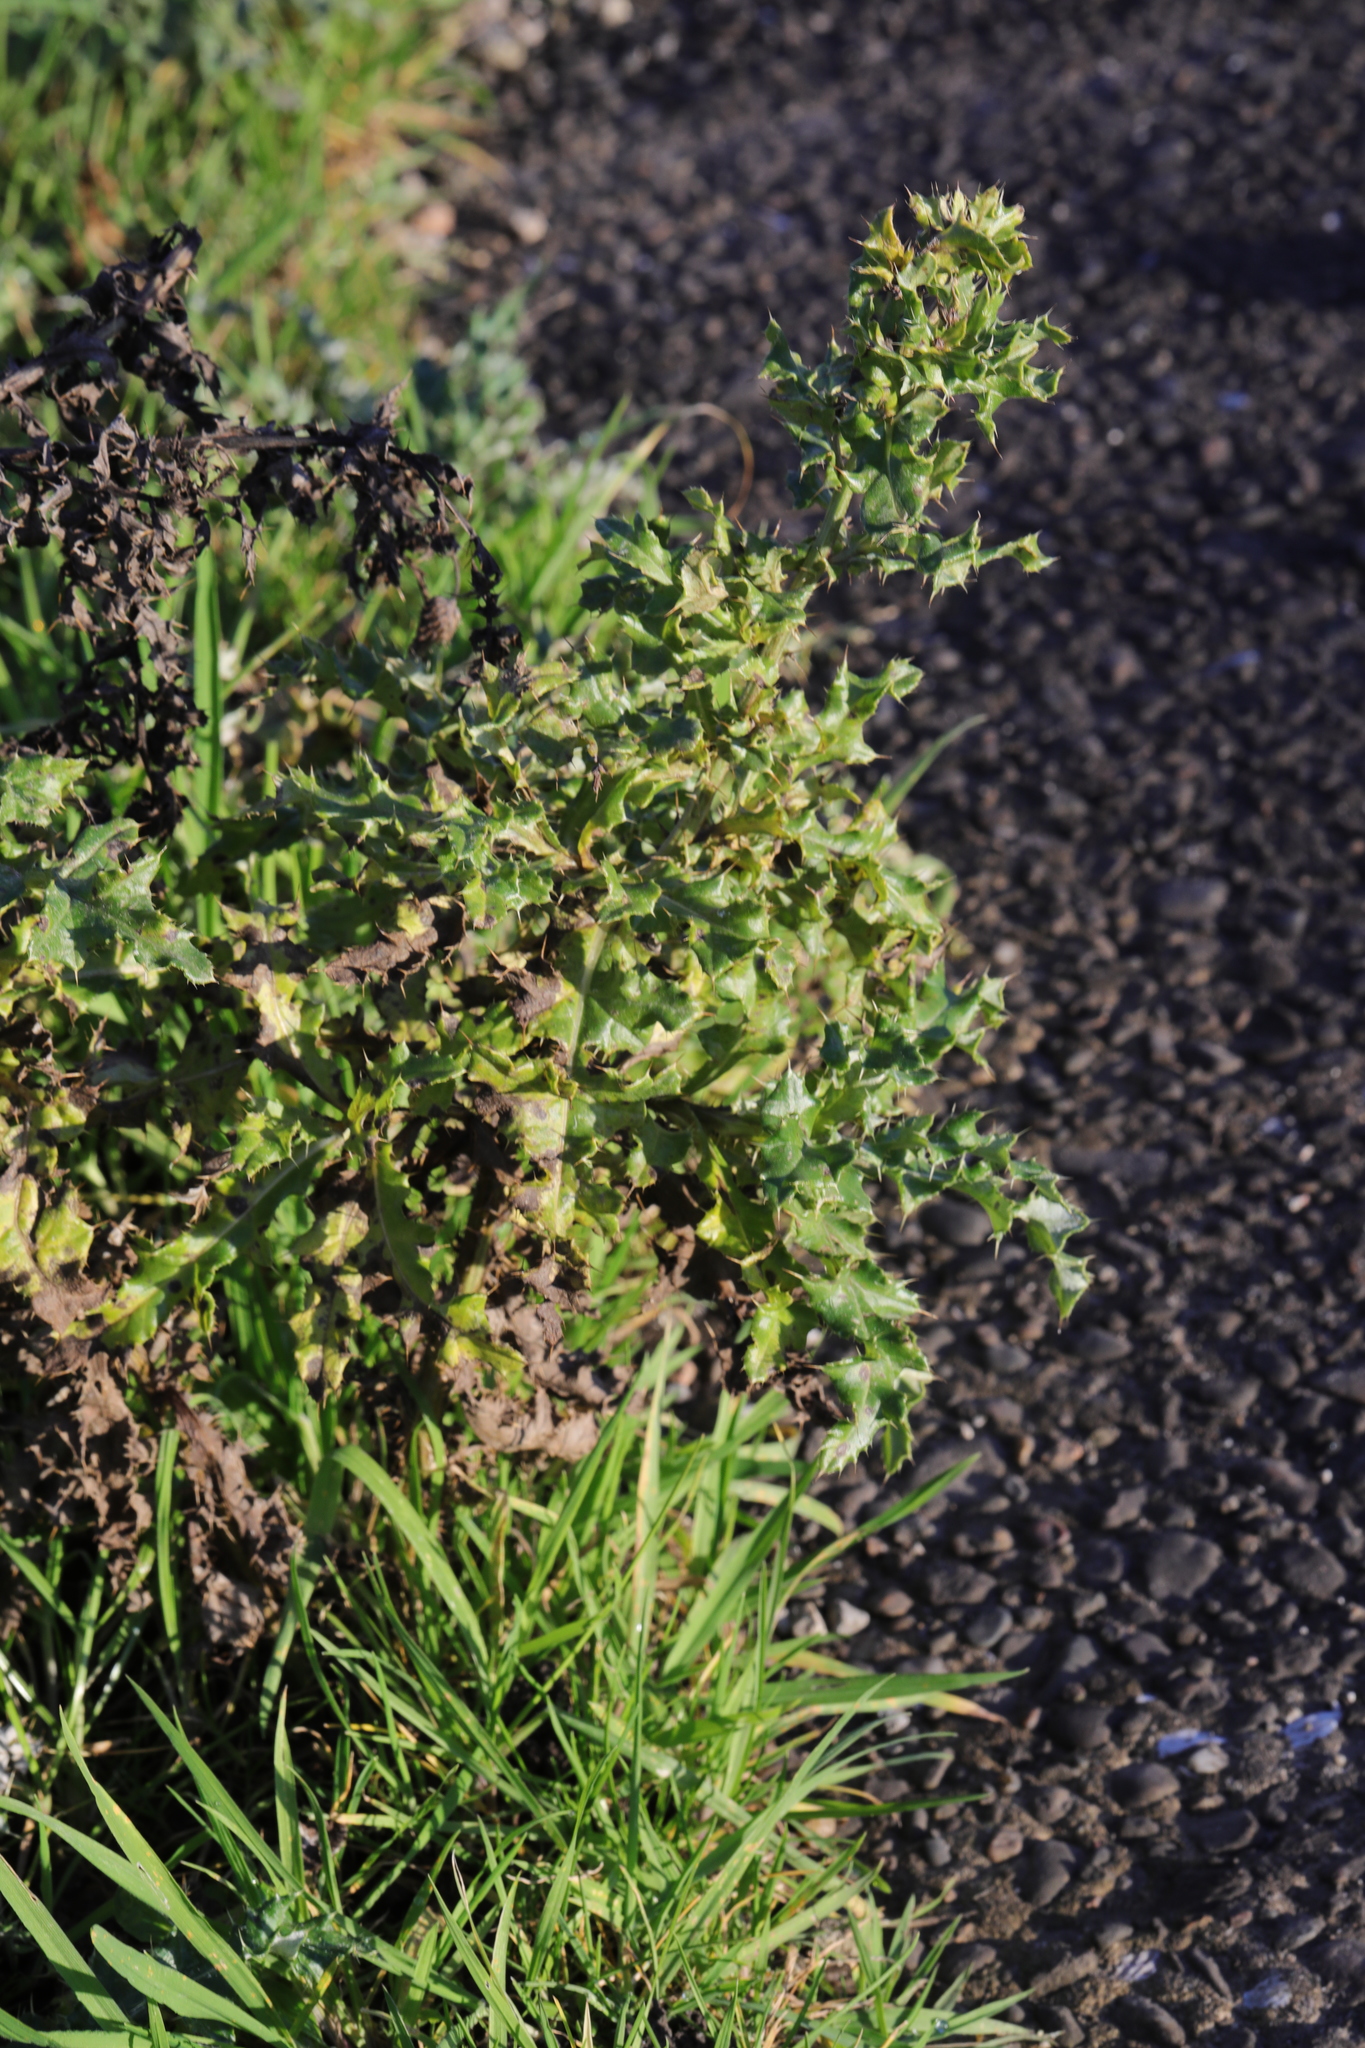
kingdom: Plantae
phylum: Tracheophyta
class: Magnoliopsida
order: Asterales
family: Asteraceae
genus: Cirsium
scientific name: Cirsium arvense
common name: Creeping thistle
